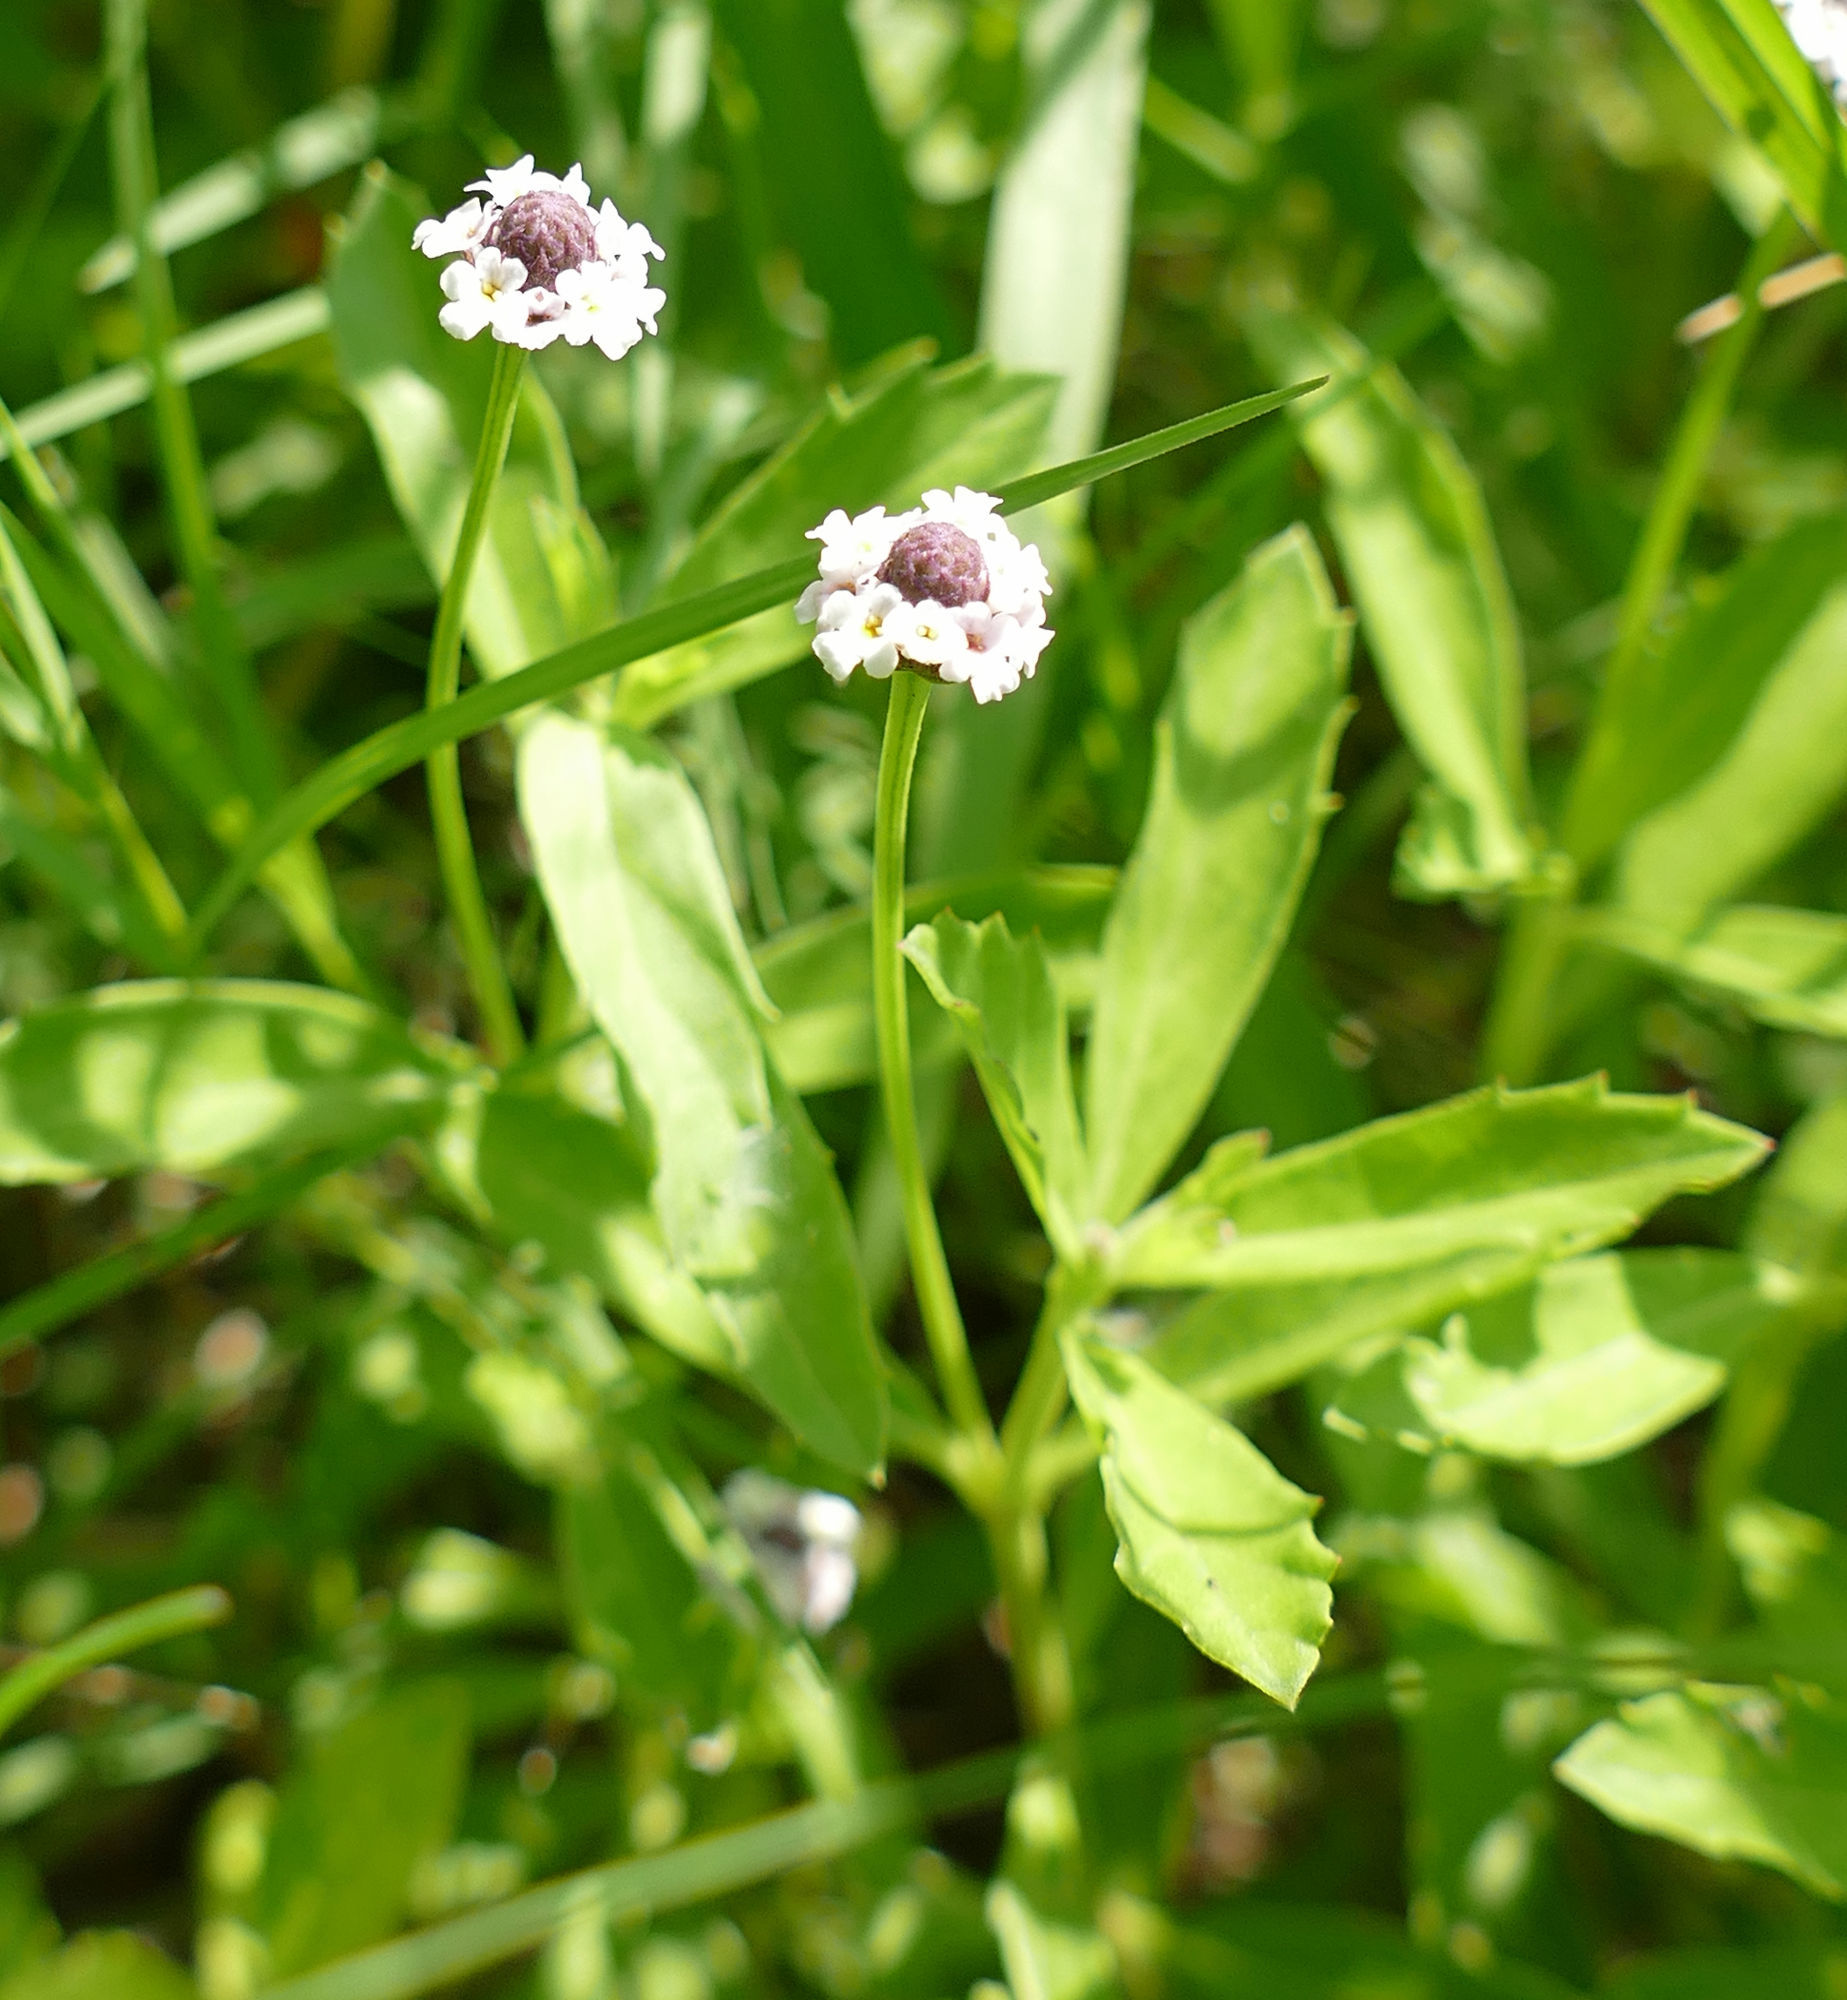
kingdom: Plantae
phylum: Tracheophyta
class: Magnoliopsida
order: Lamiales
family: Verbenaceae
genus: Phyla
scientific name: Phyla nodiflora
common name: Frogfruit
